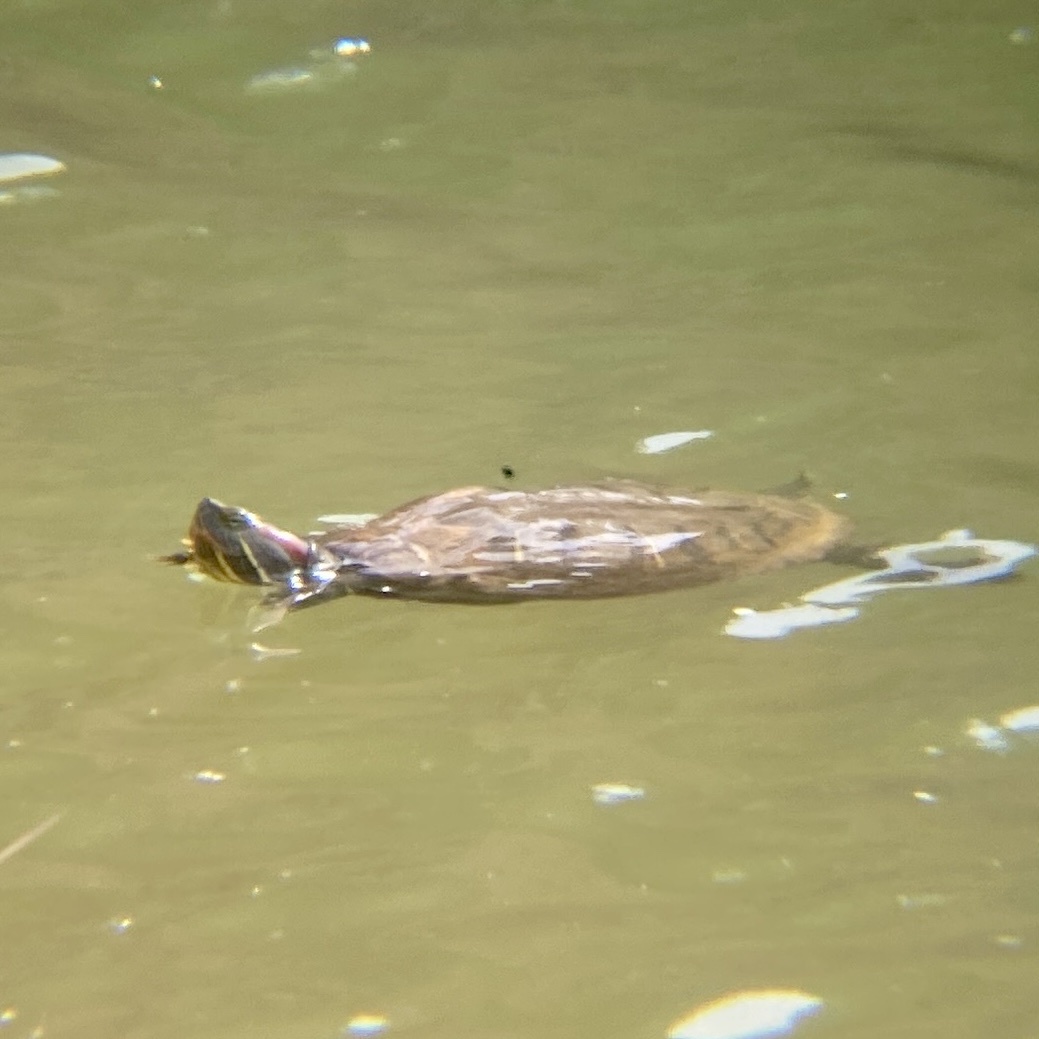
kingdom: Animalia
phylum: Chordata
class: Testudines
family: Emydidae
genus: Trachemys
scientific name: Trachemys scripta
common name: Slider
